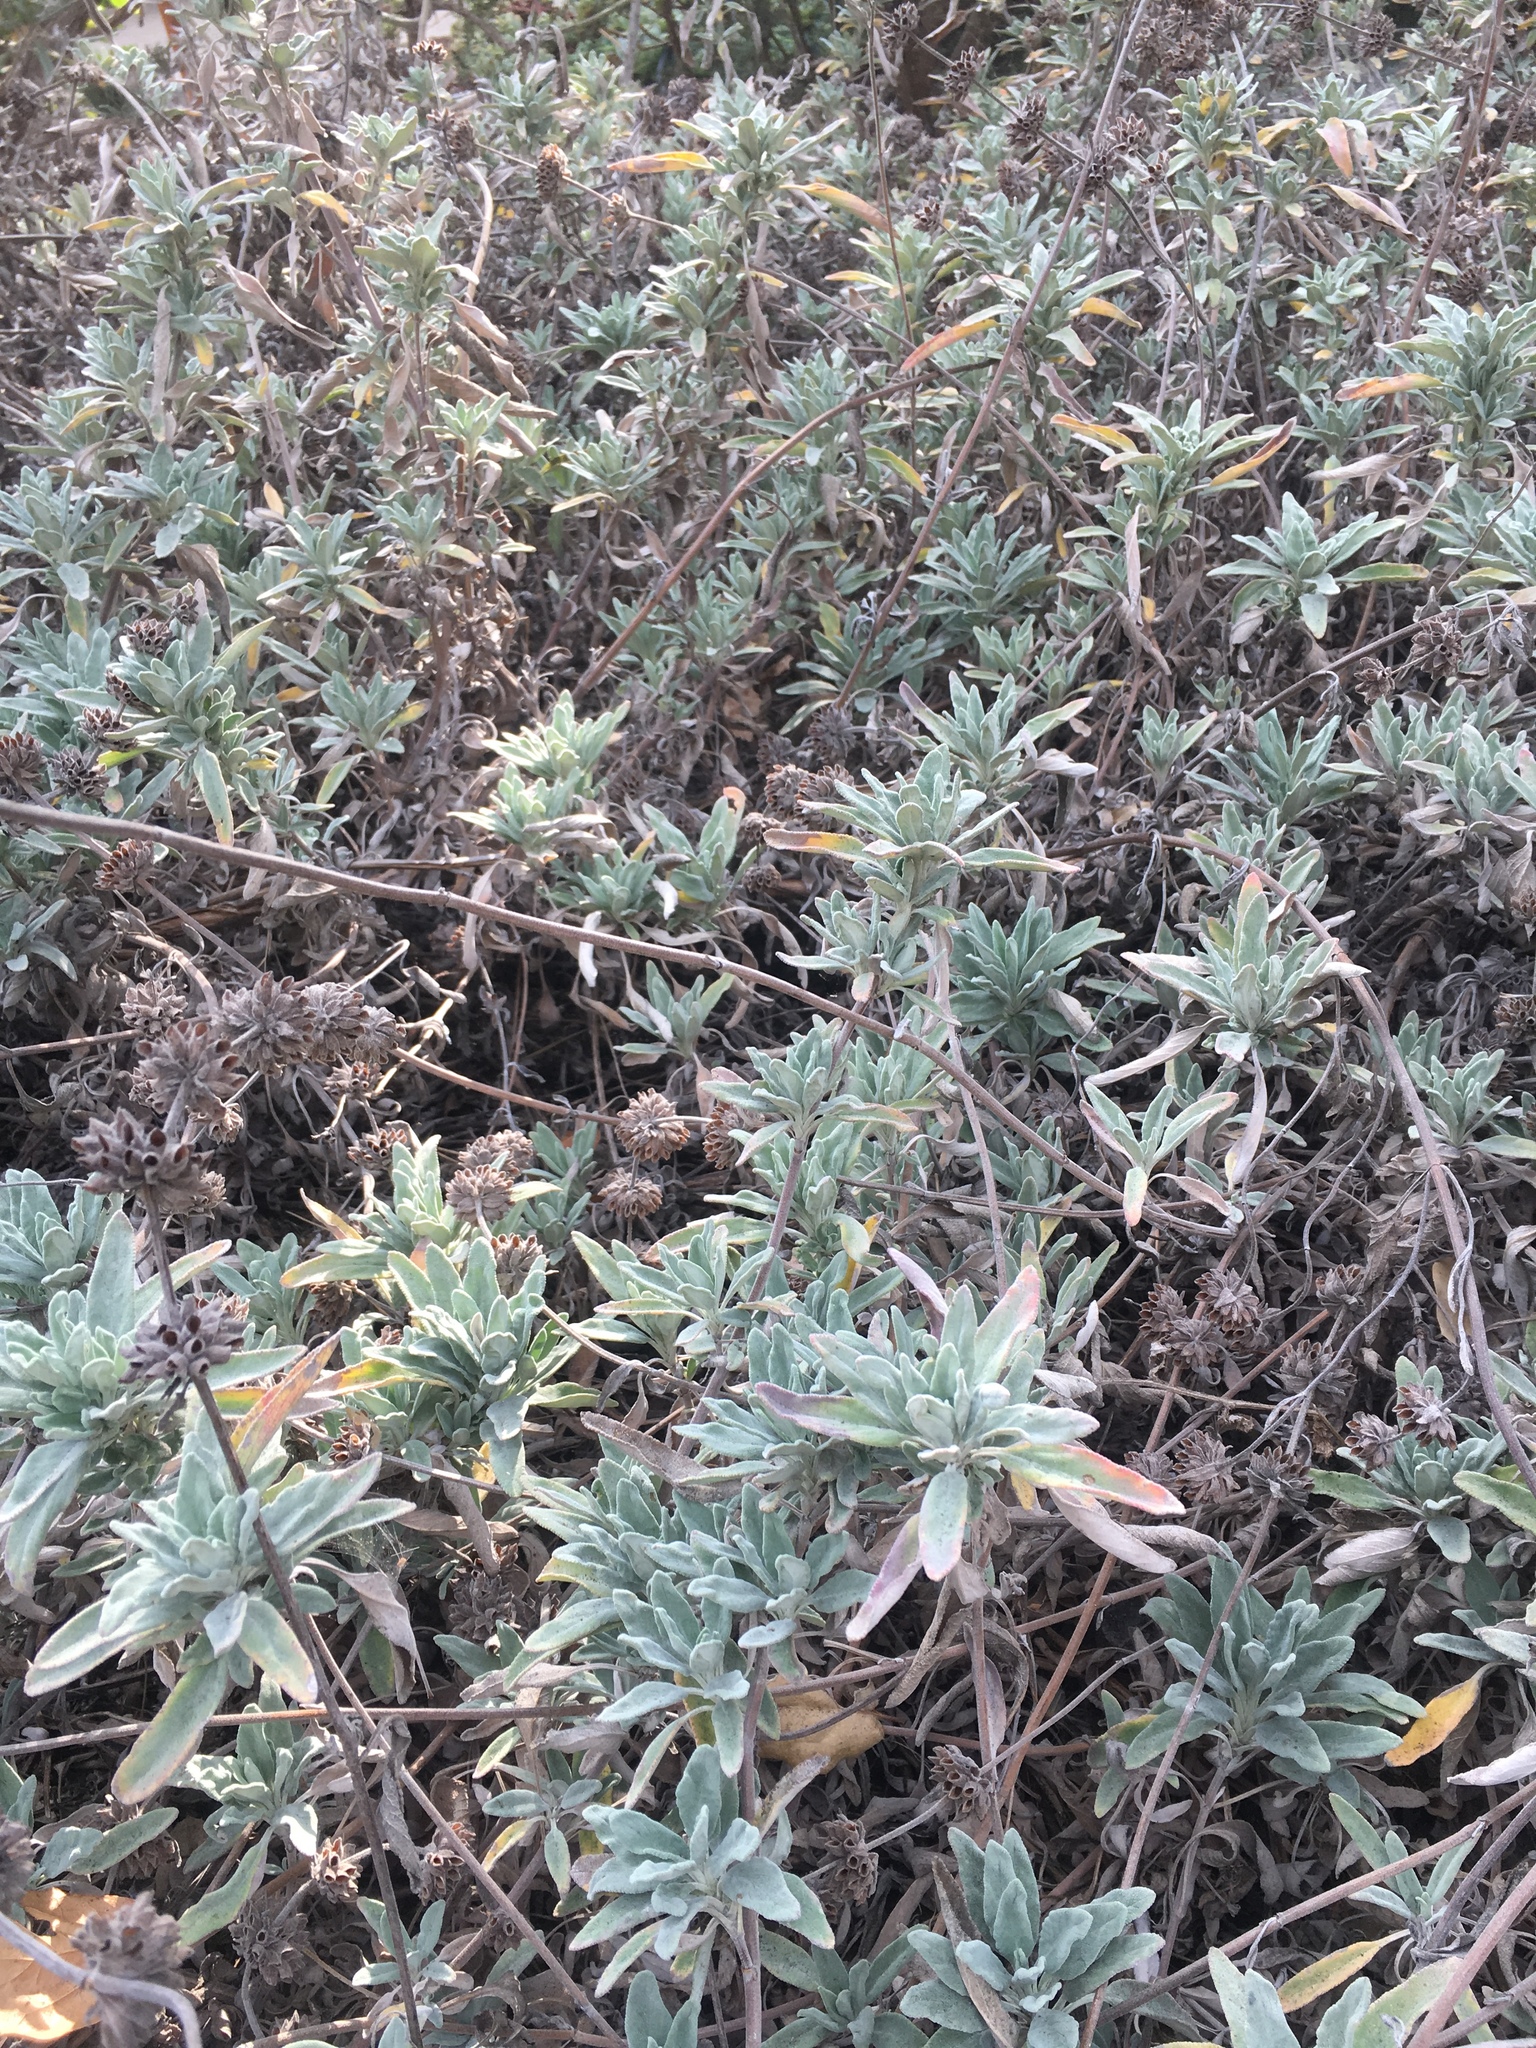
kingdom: Plantae
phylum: Tracheophyta
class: Magnoliopsida
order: Lamiales
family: Lamiaceae
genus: Salvia
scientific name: Salvia
